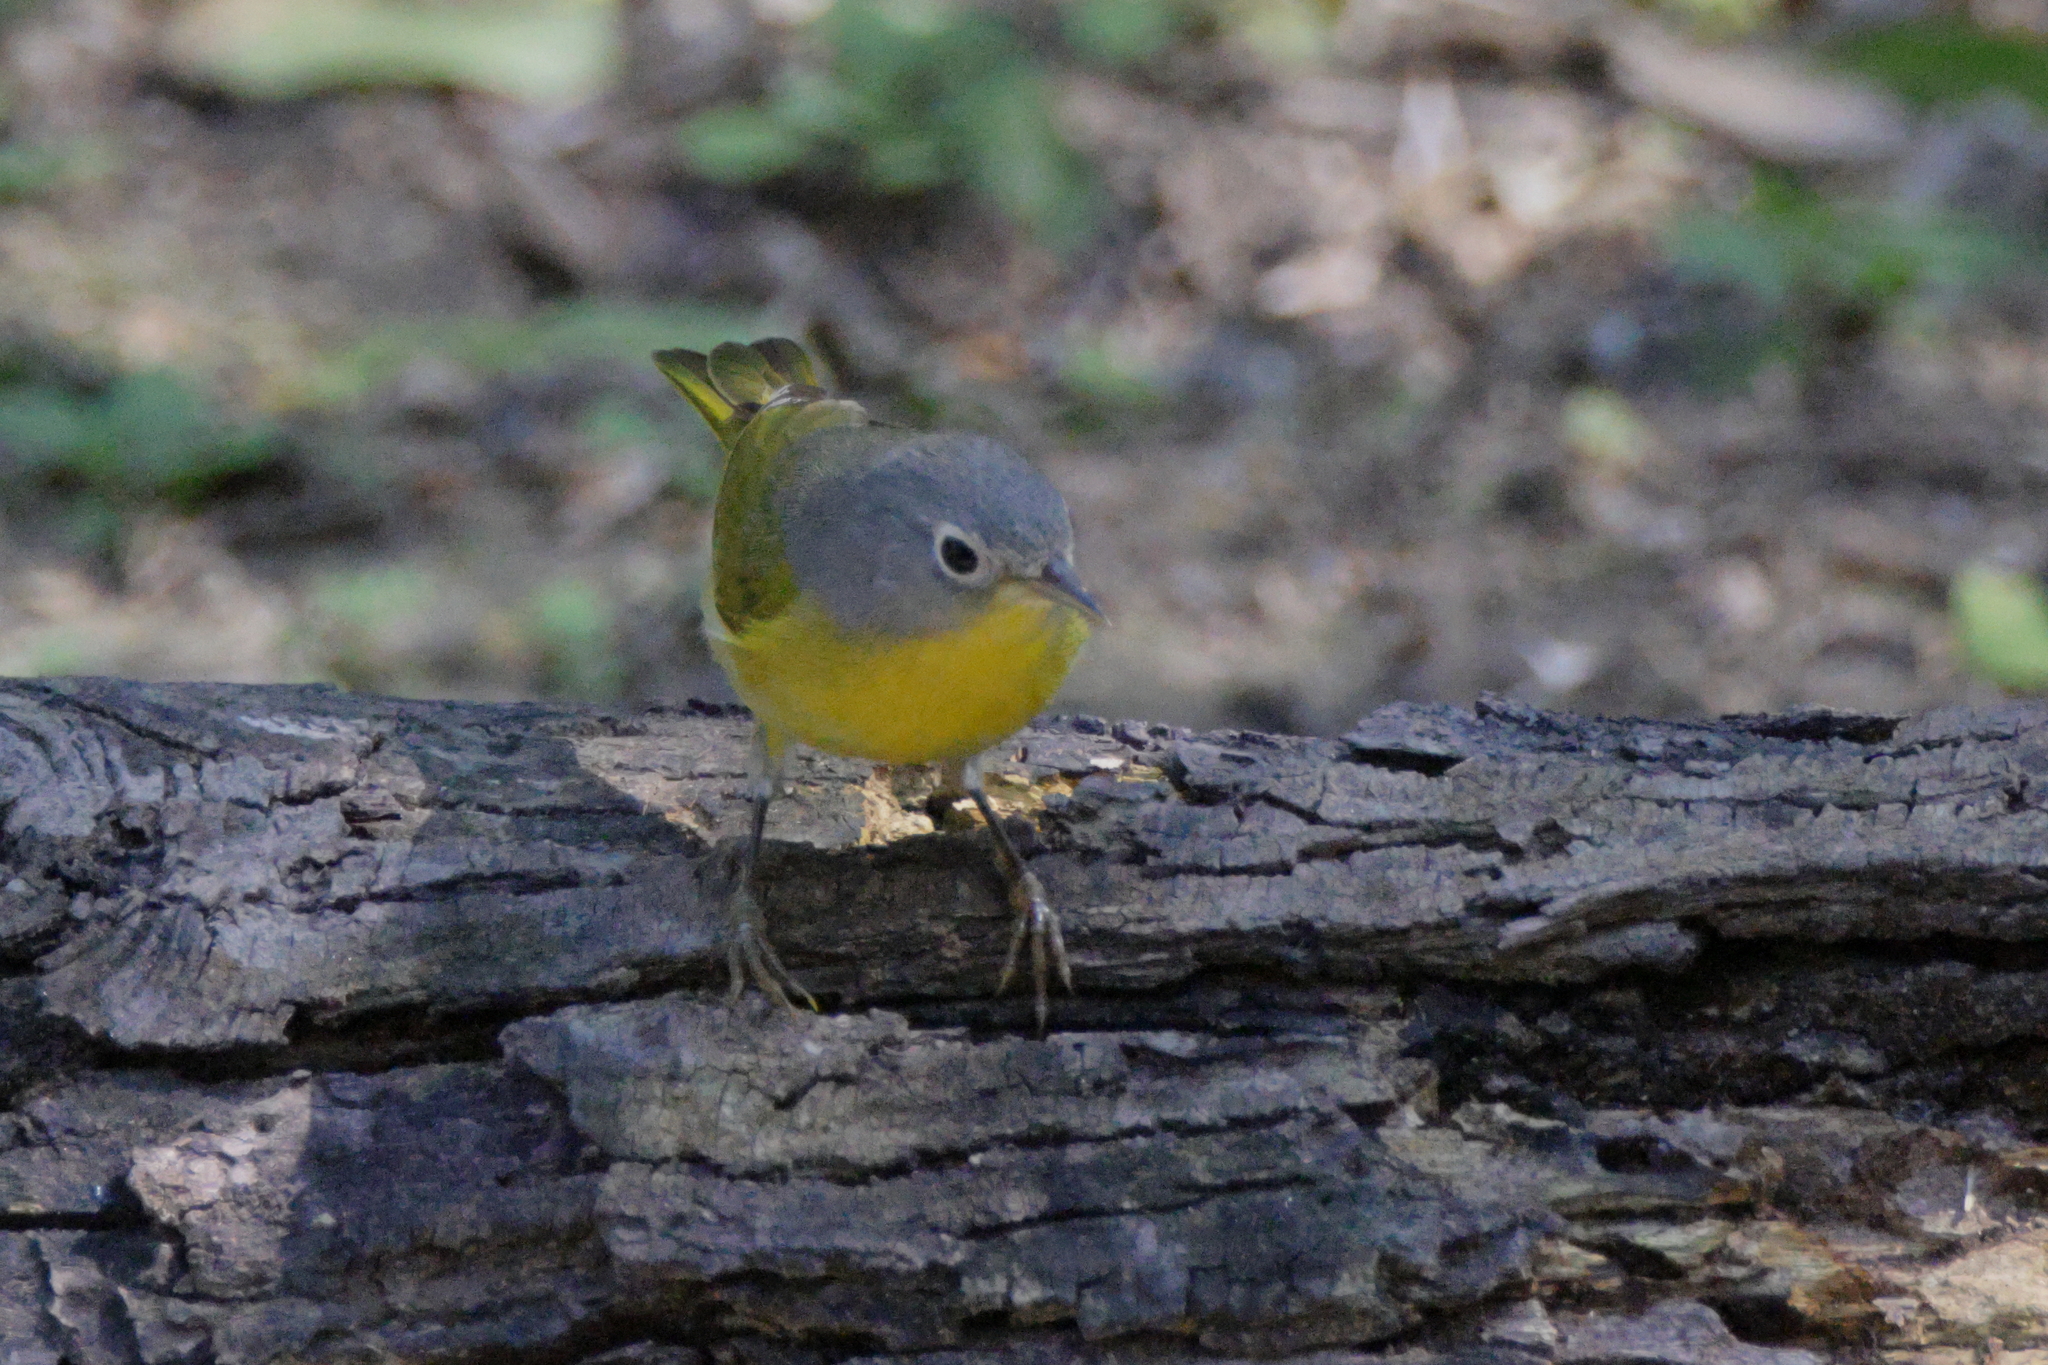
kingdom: Animalia
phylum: Chordata
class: Aves
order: Passeriformes
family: Parulidae
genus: Leiothlypis
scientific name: Leiothlypis ruficapilla
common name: Nashville warbler
